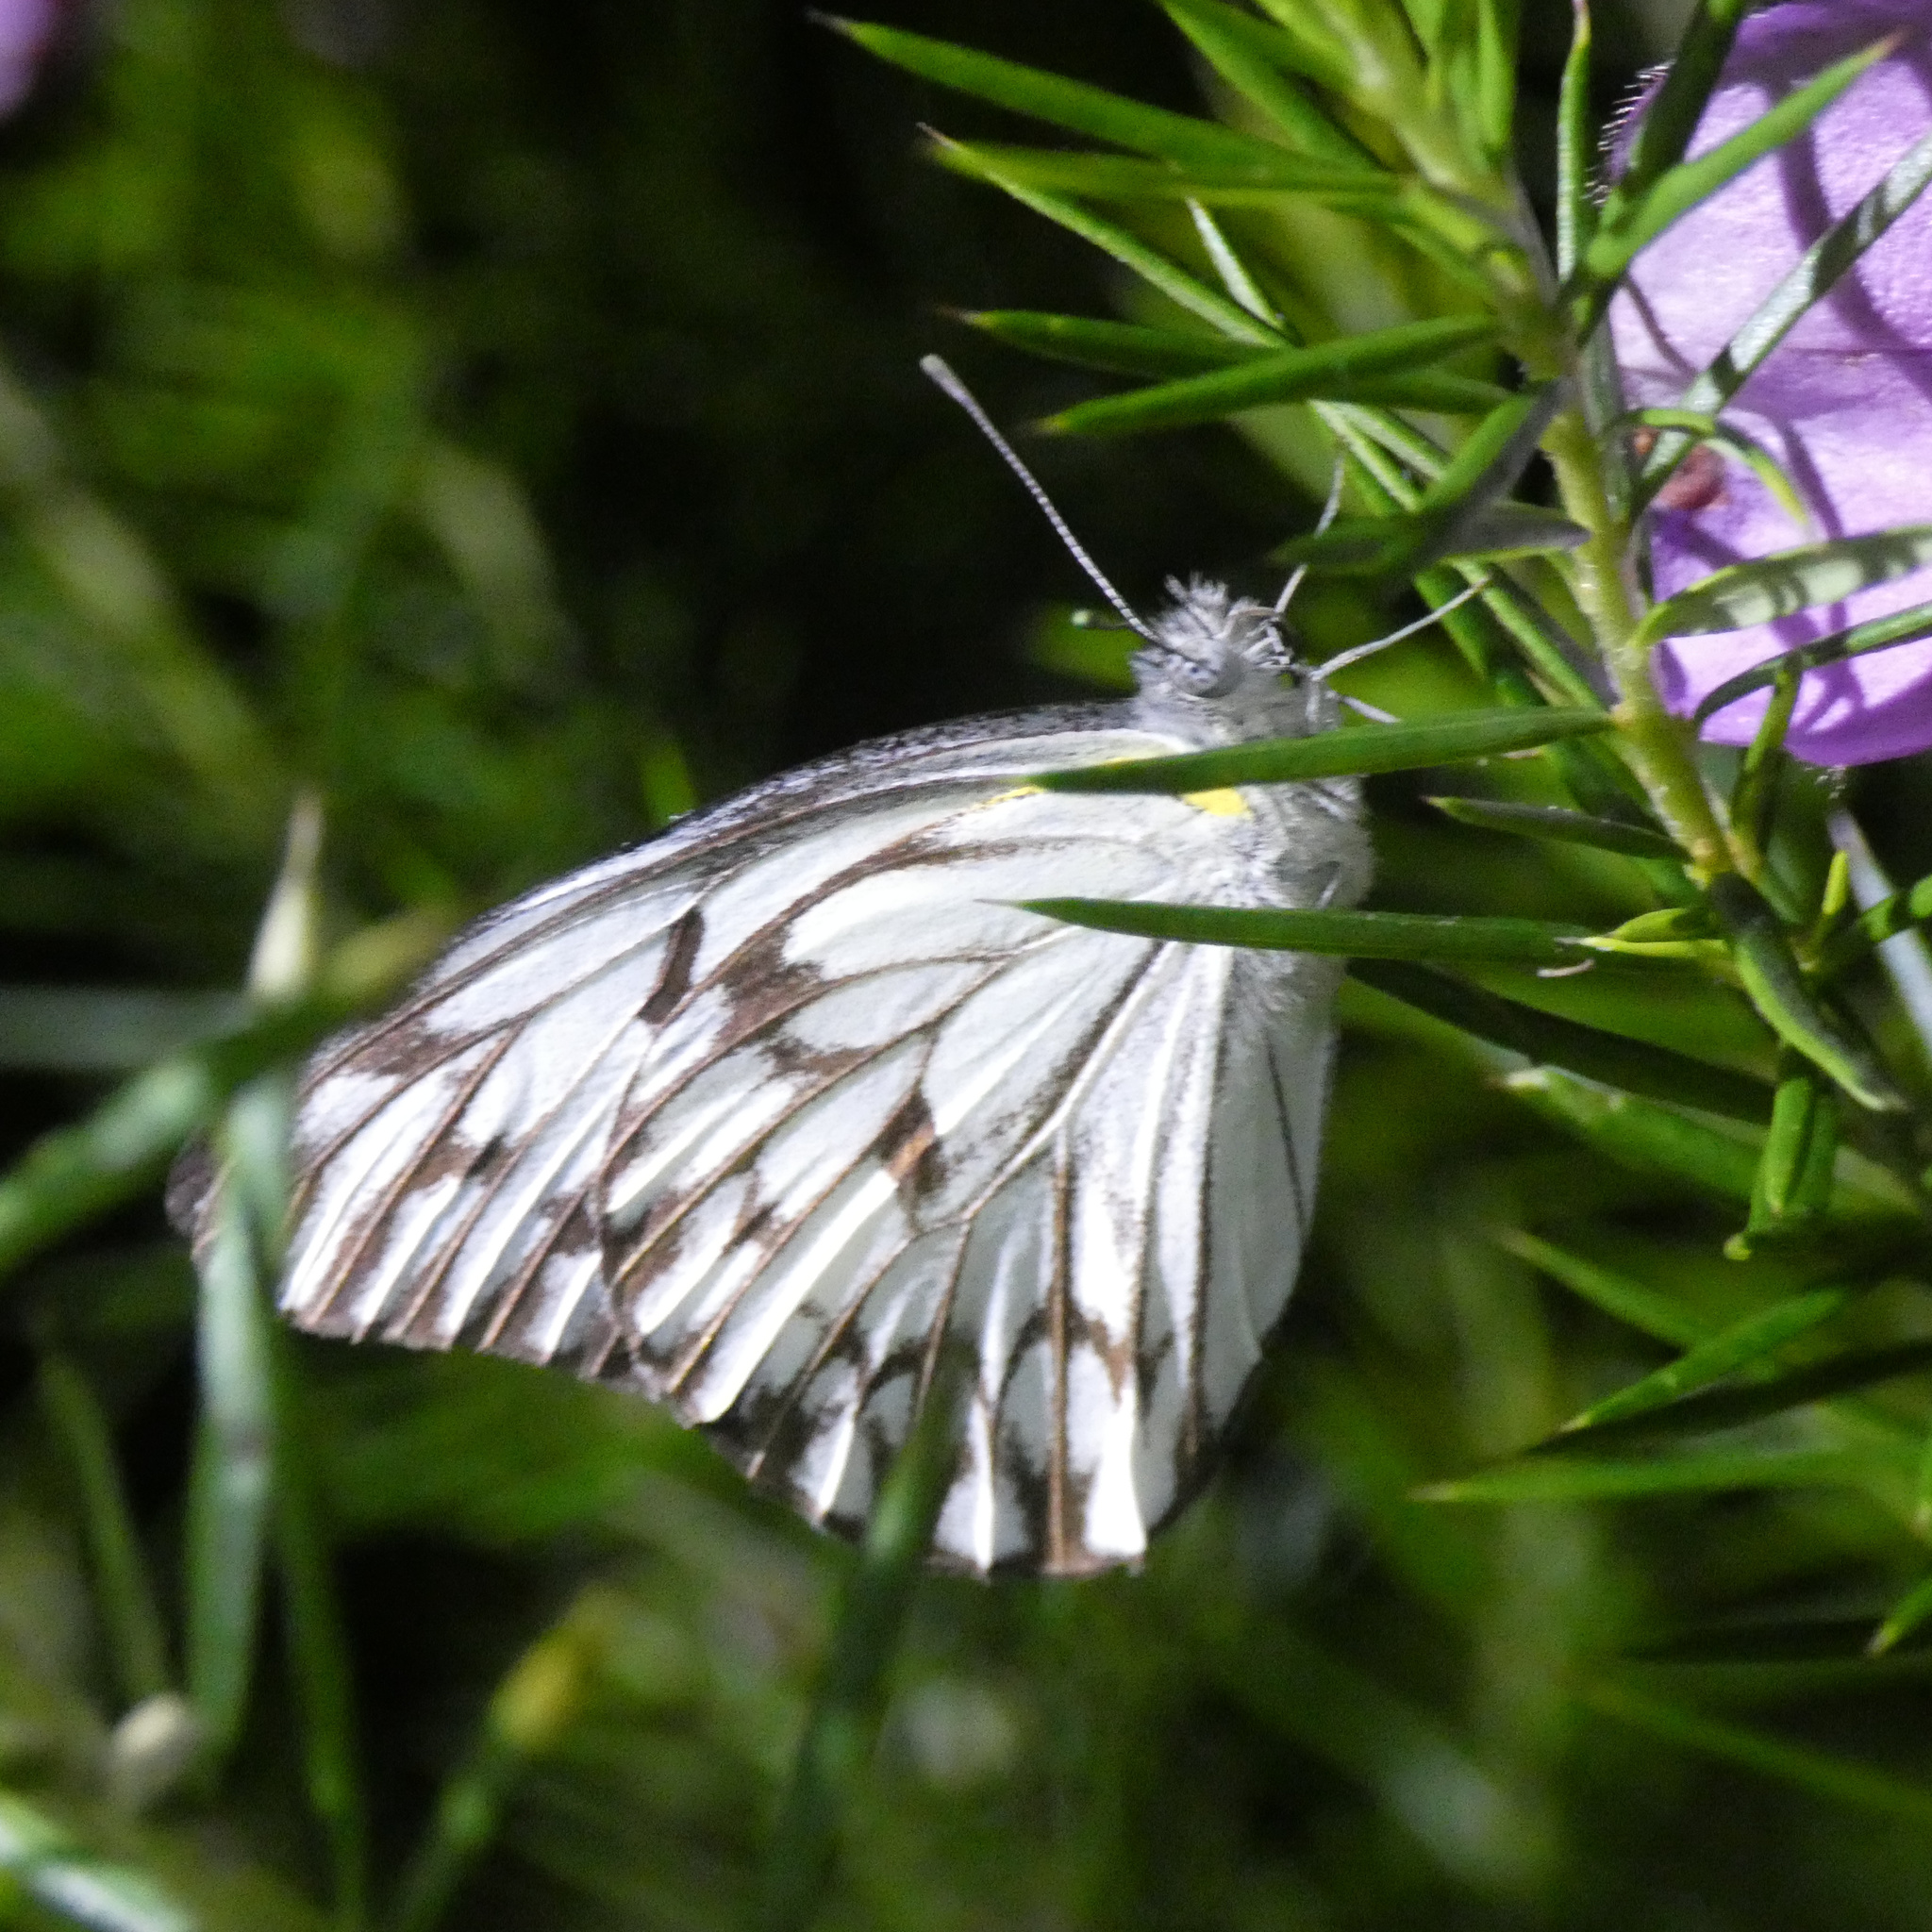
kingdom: Animalia
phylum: Arthropoda
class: Insecta
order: Lepidoptera
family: Pieridae
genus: Belenois
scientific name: Belenois gidica
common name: Pointed caper white
